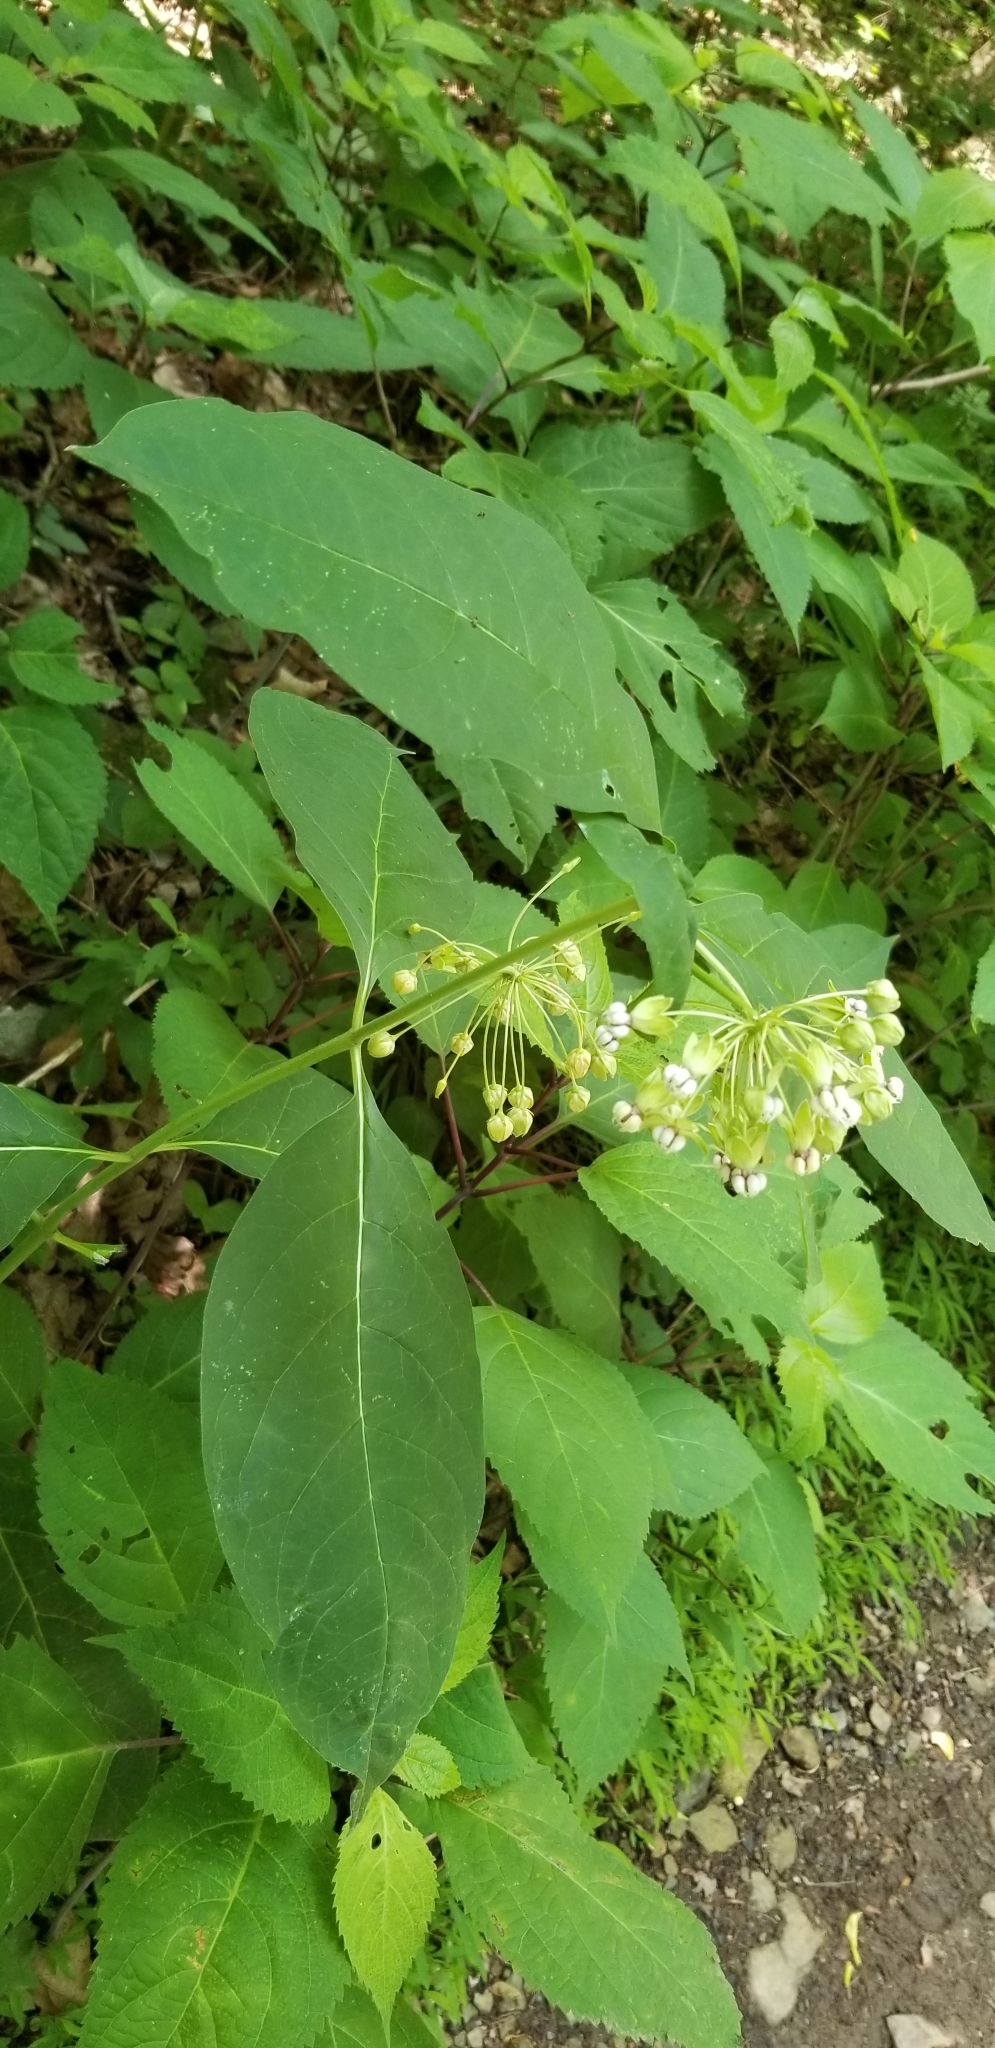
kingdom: Plantae
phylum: Tracheophyta
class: Magnoliopsida
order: Gentianales
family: Apocynaceae
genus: Asclepias
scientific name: Asclepias exaltata
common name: Poke milkweed
